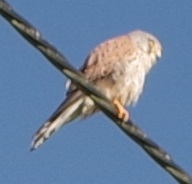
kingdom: Animalia
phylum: Chordata
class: Aves
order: Falconiformes
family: Falconidae
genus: Falco
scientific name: Falco tinnunculus
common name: Common kestrel
